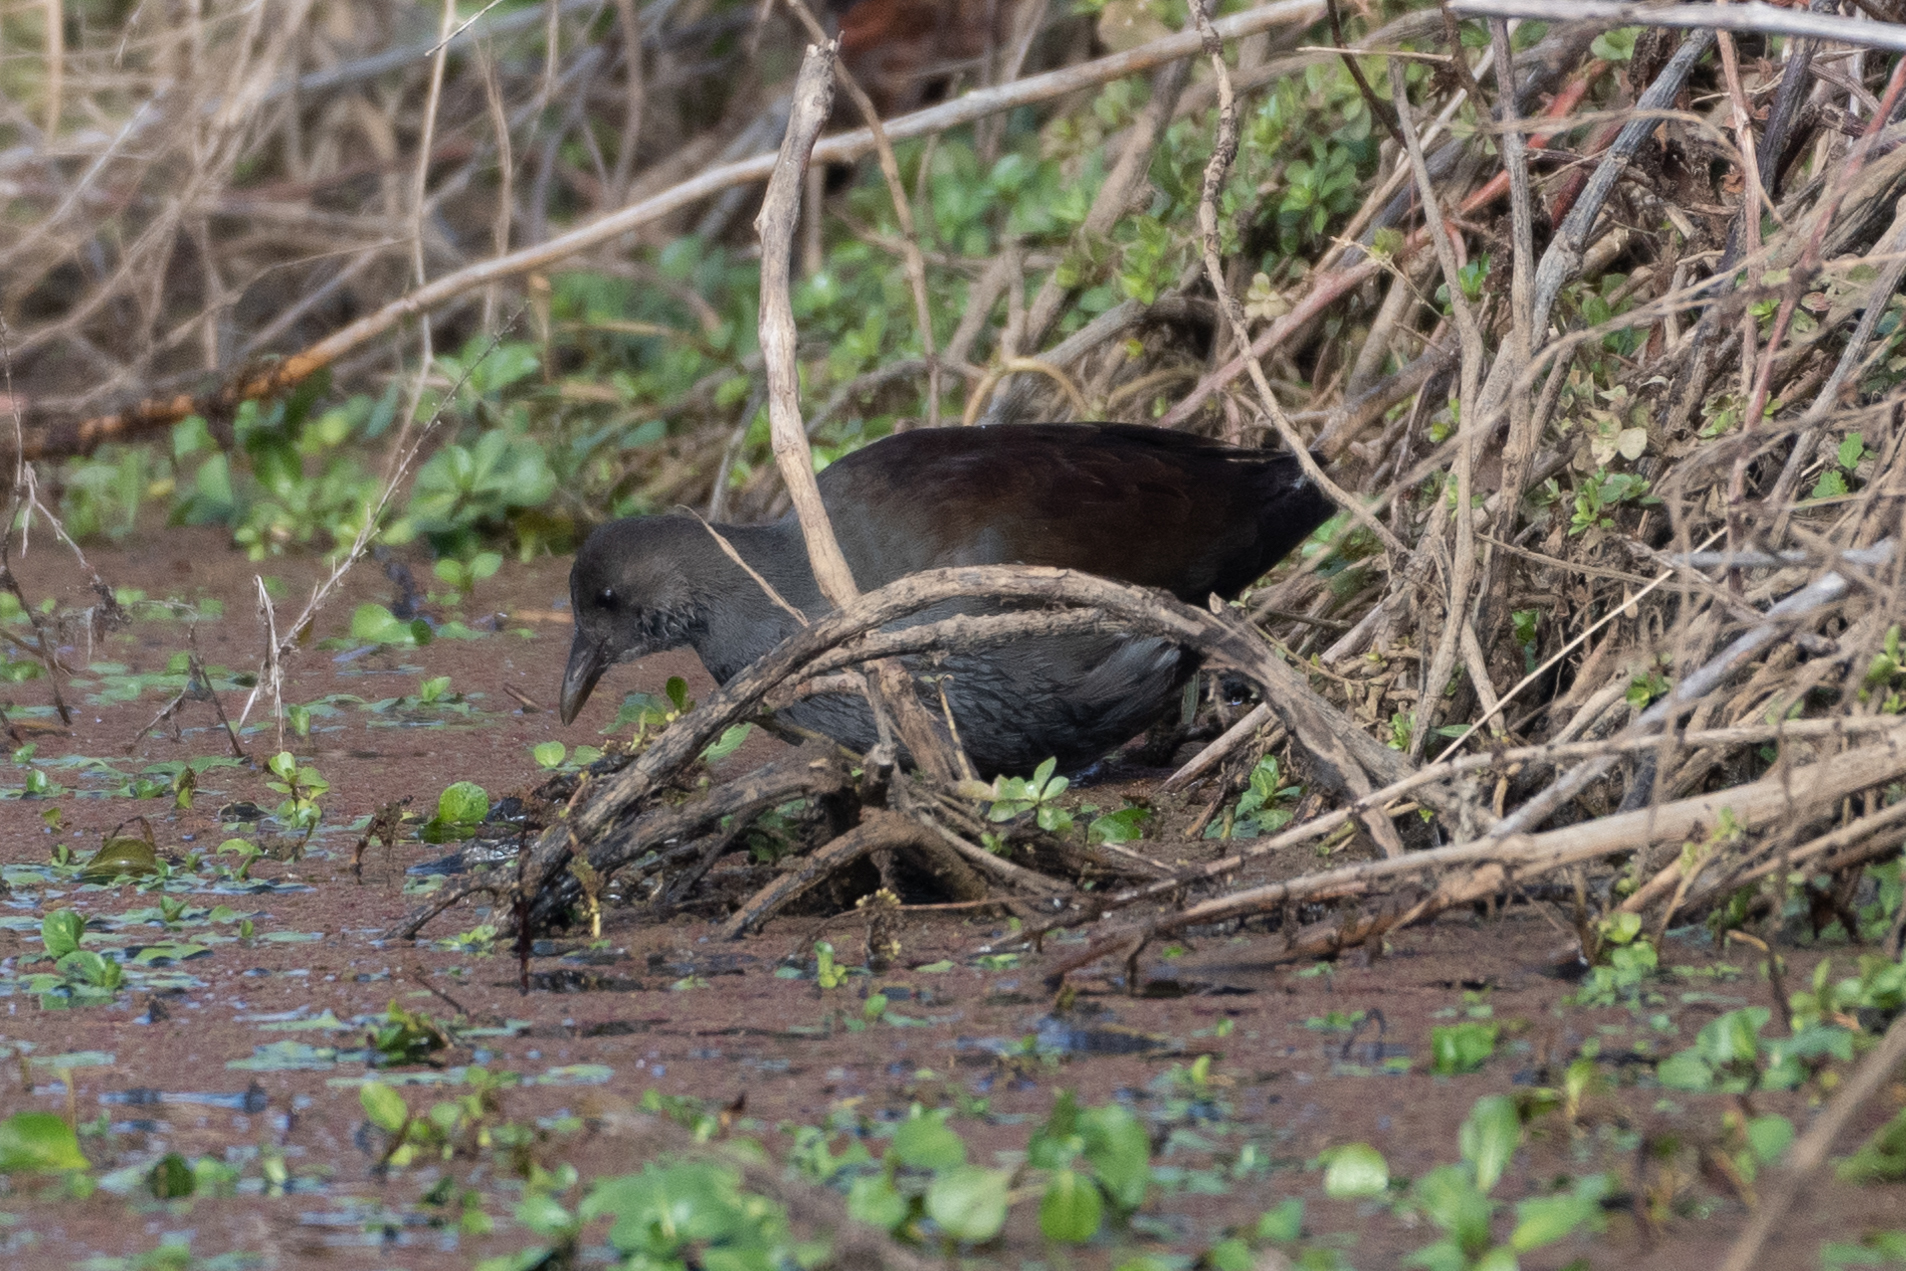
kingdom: Animalia
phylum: Chordata
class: Aves
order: Gruiformes
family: Rallidae
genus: Gallinula
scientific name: Gallinula chloropus
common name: Common moorhen
